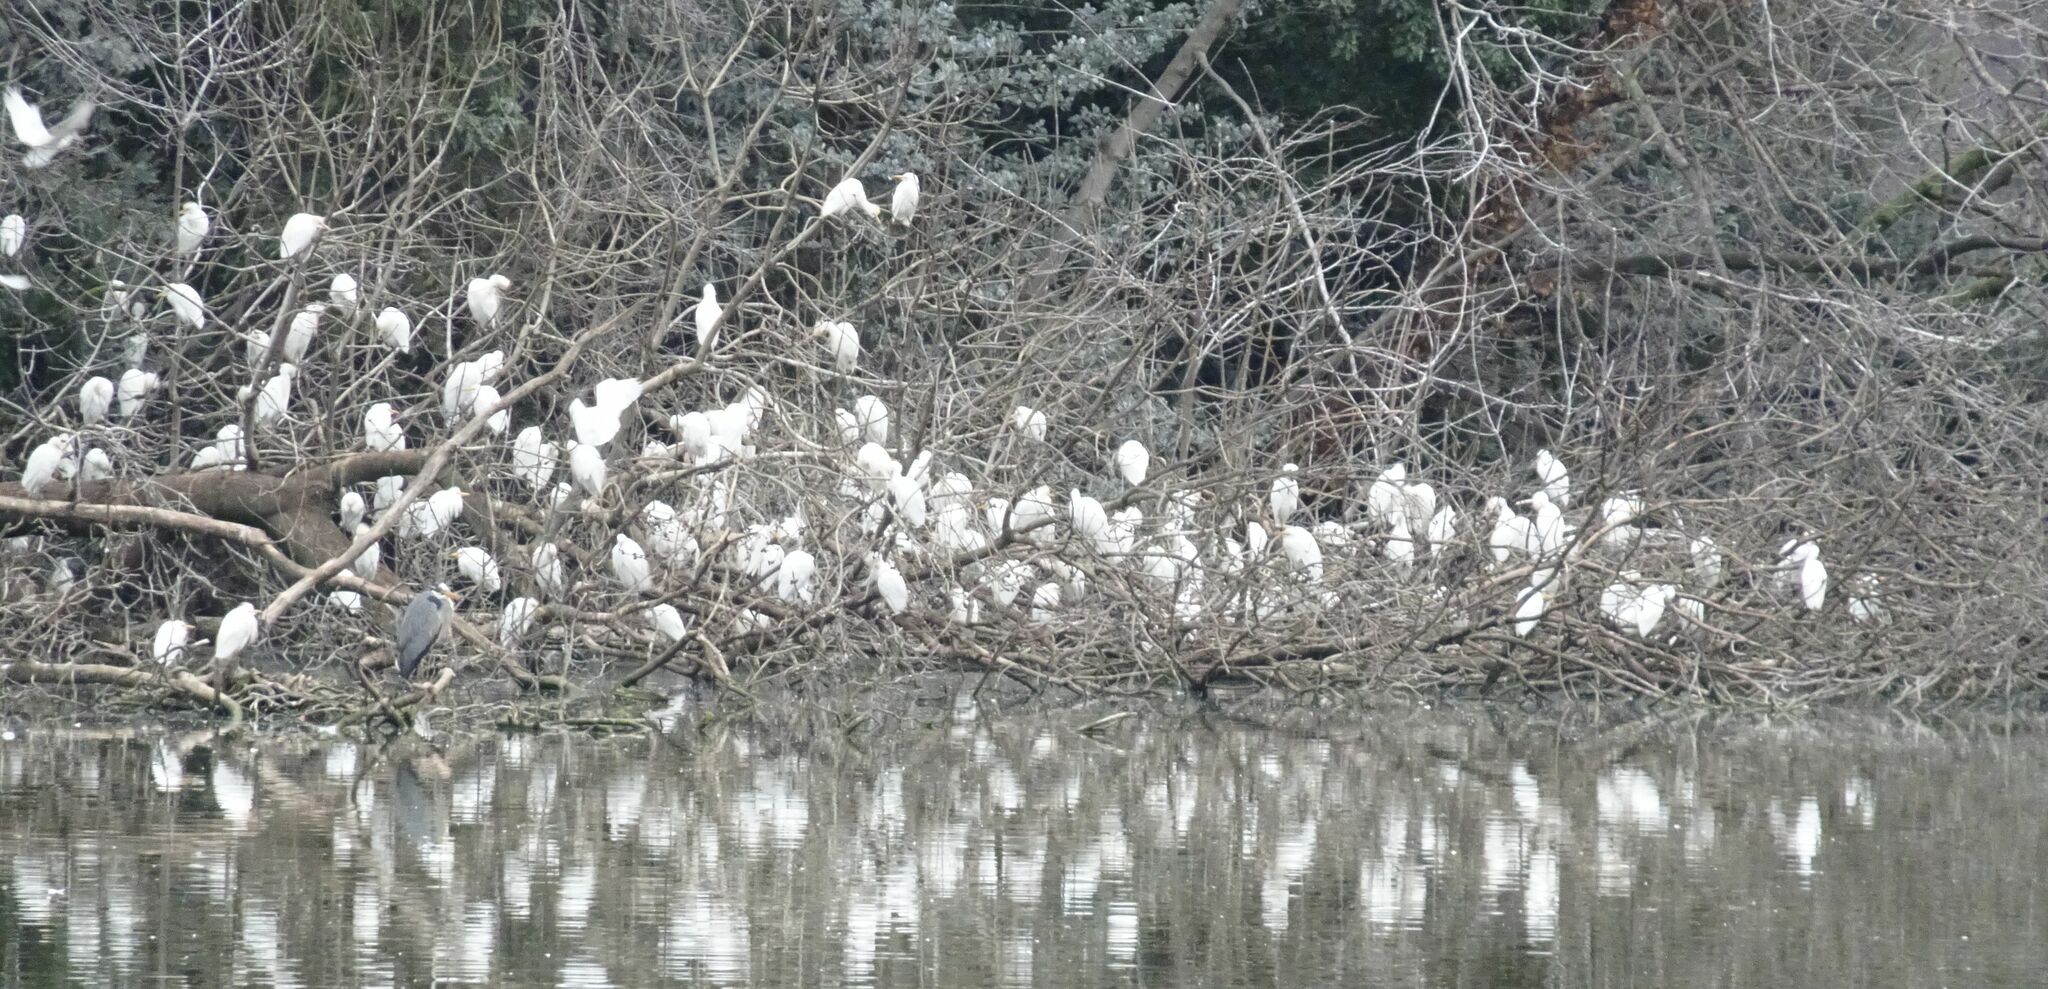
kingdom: Animalia
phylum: Chordata
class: Aves
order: Pelecaniformes
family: Ardeidae
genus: Bubulcus
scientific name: Bubulcus ibis
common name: Cattle egret
